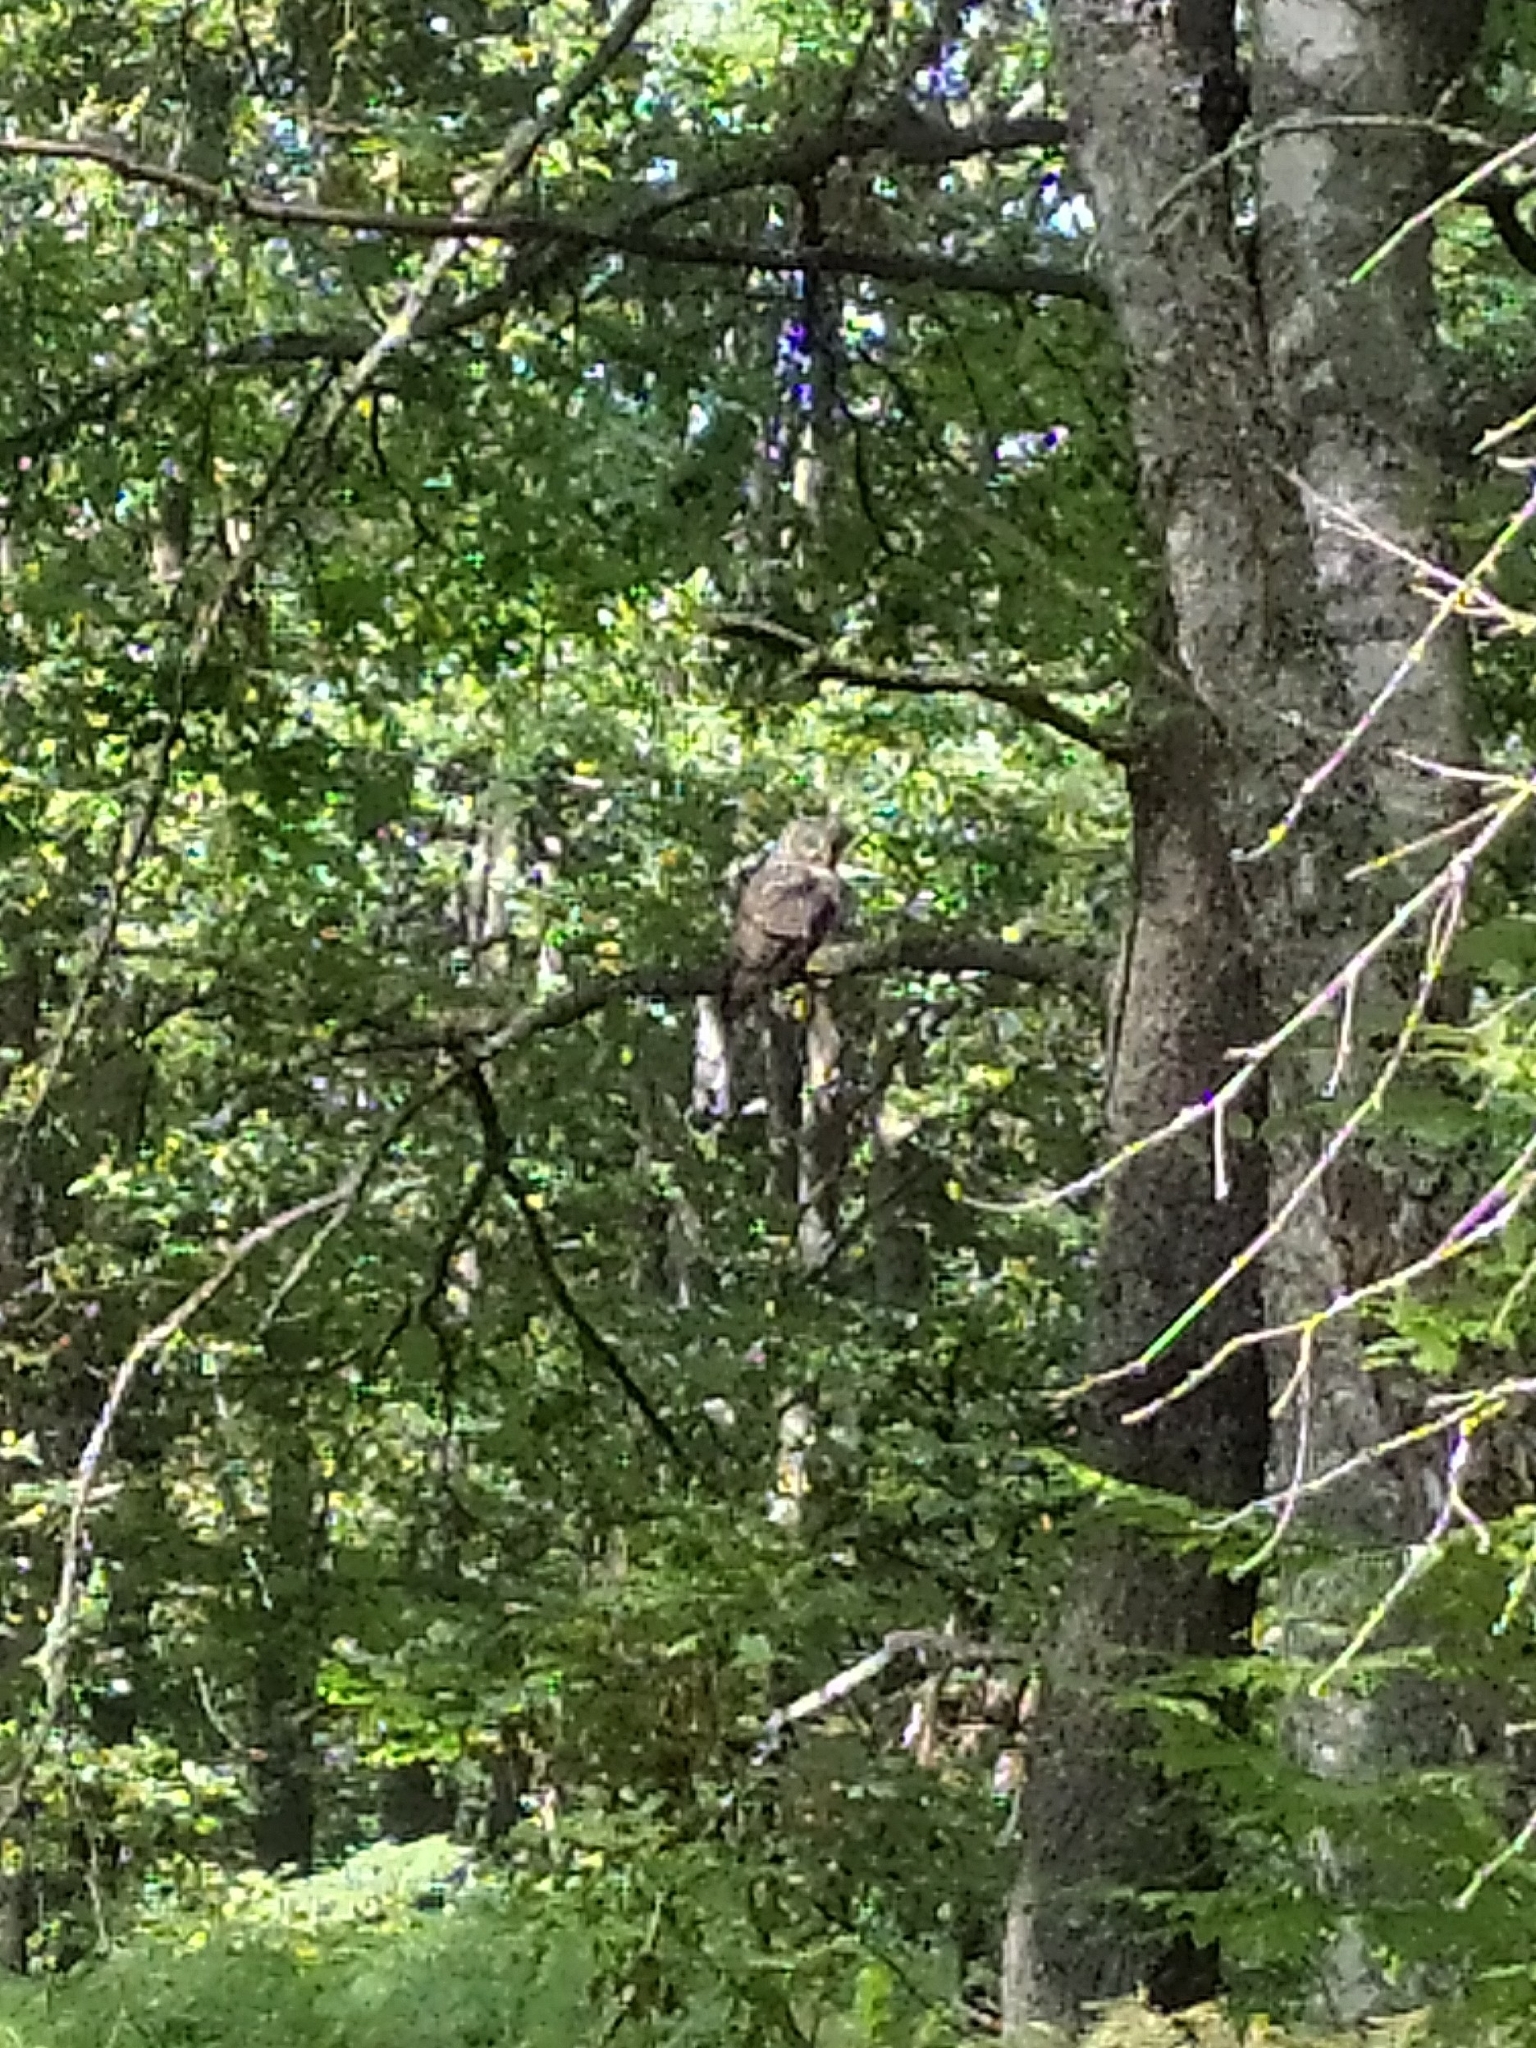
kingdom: Animalia
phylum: Chordata
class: Aves
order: Strigiformes
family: Strigidae
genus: Strix
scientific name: Strix uralensis
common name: Ural owl
